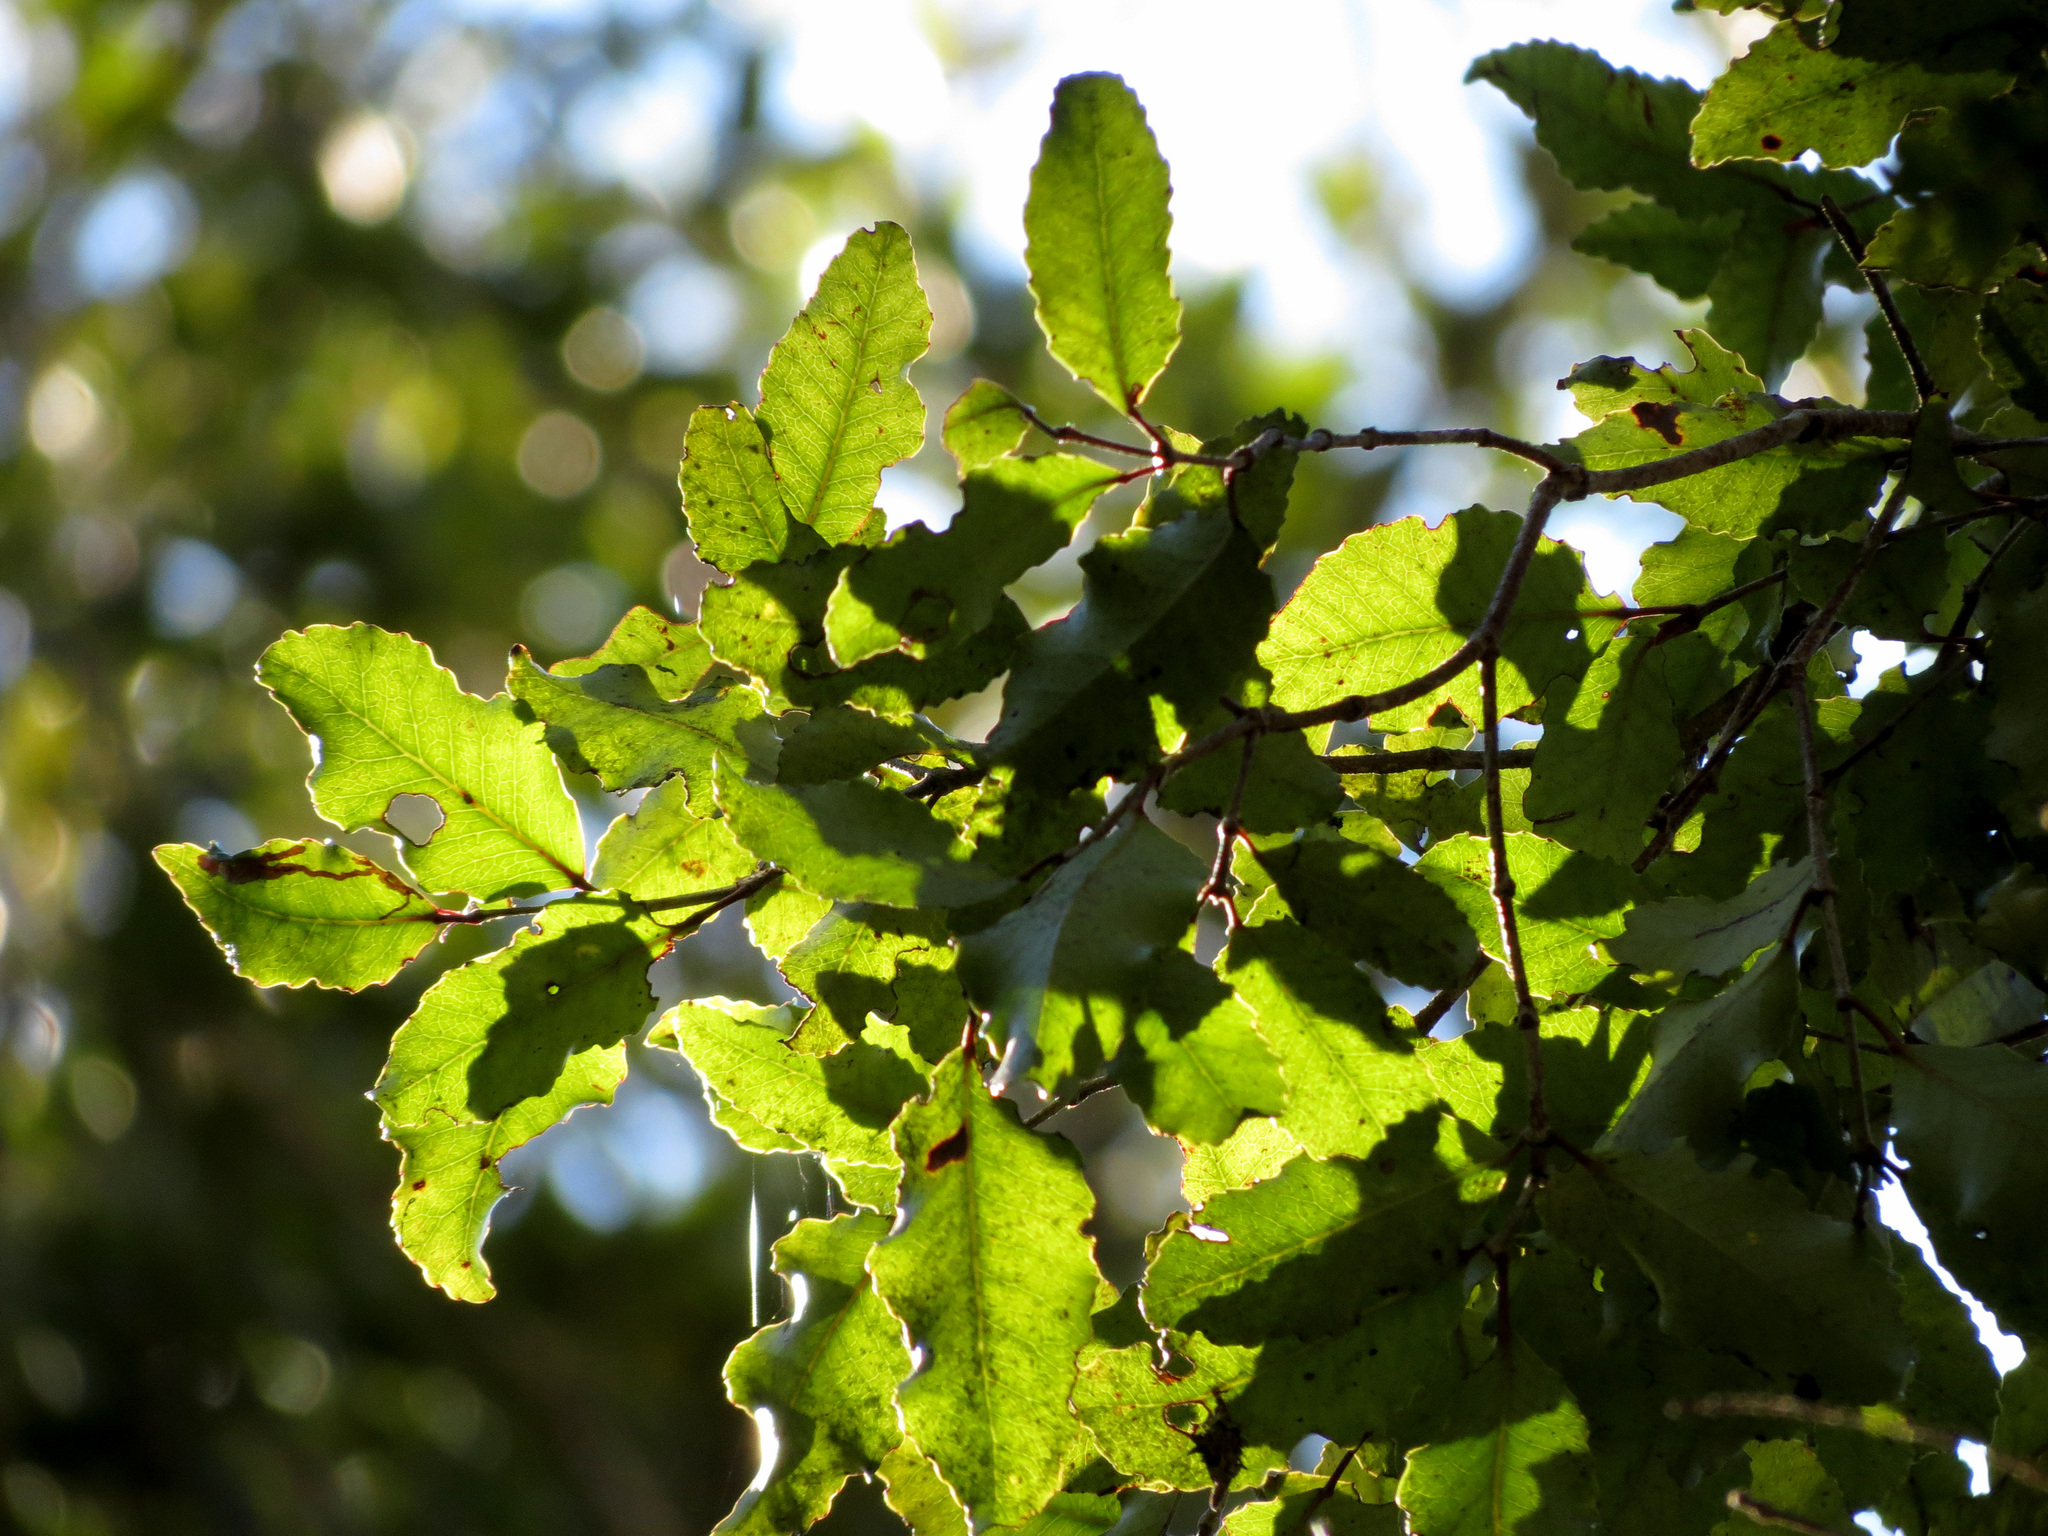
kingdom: Plantae
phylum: Tracheophyta
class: Magnoliopsida
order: Oxalidales
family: Cunoniaceae
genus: Pterophylla
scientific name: Pterophylla racemosa
